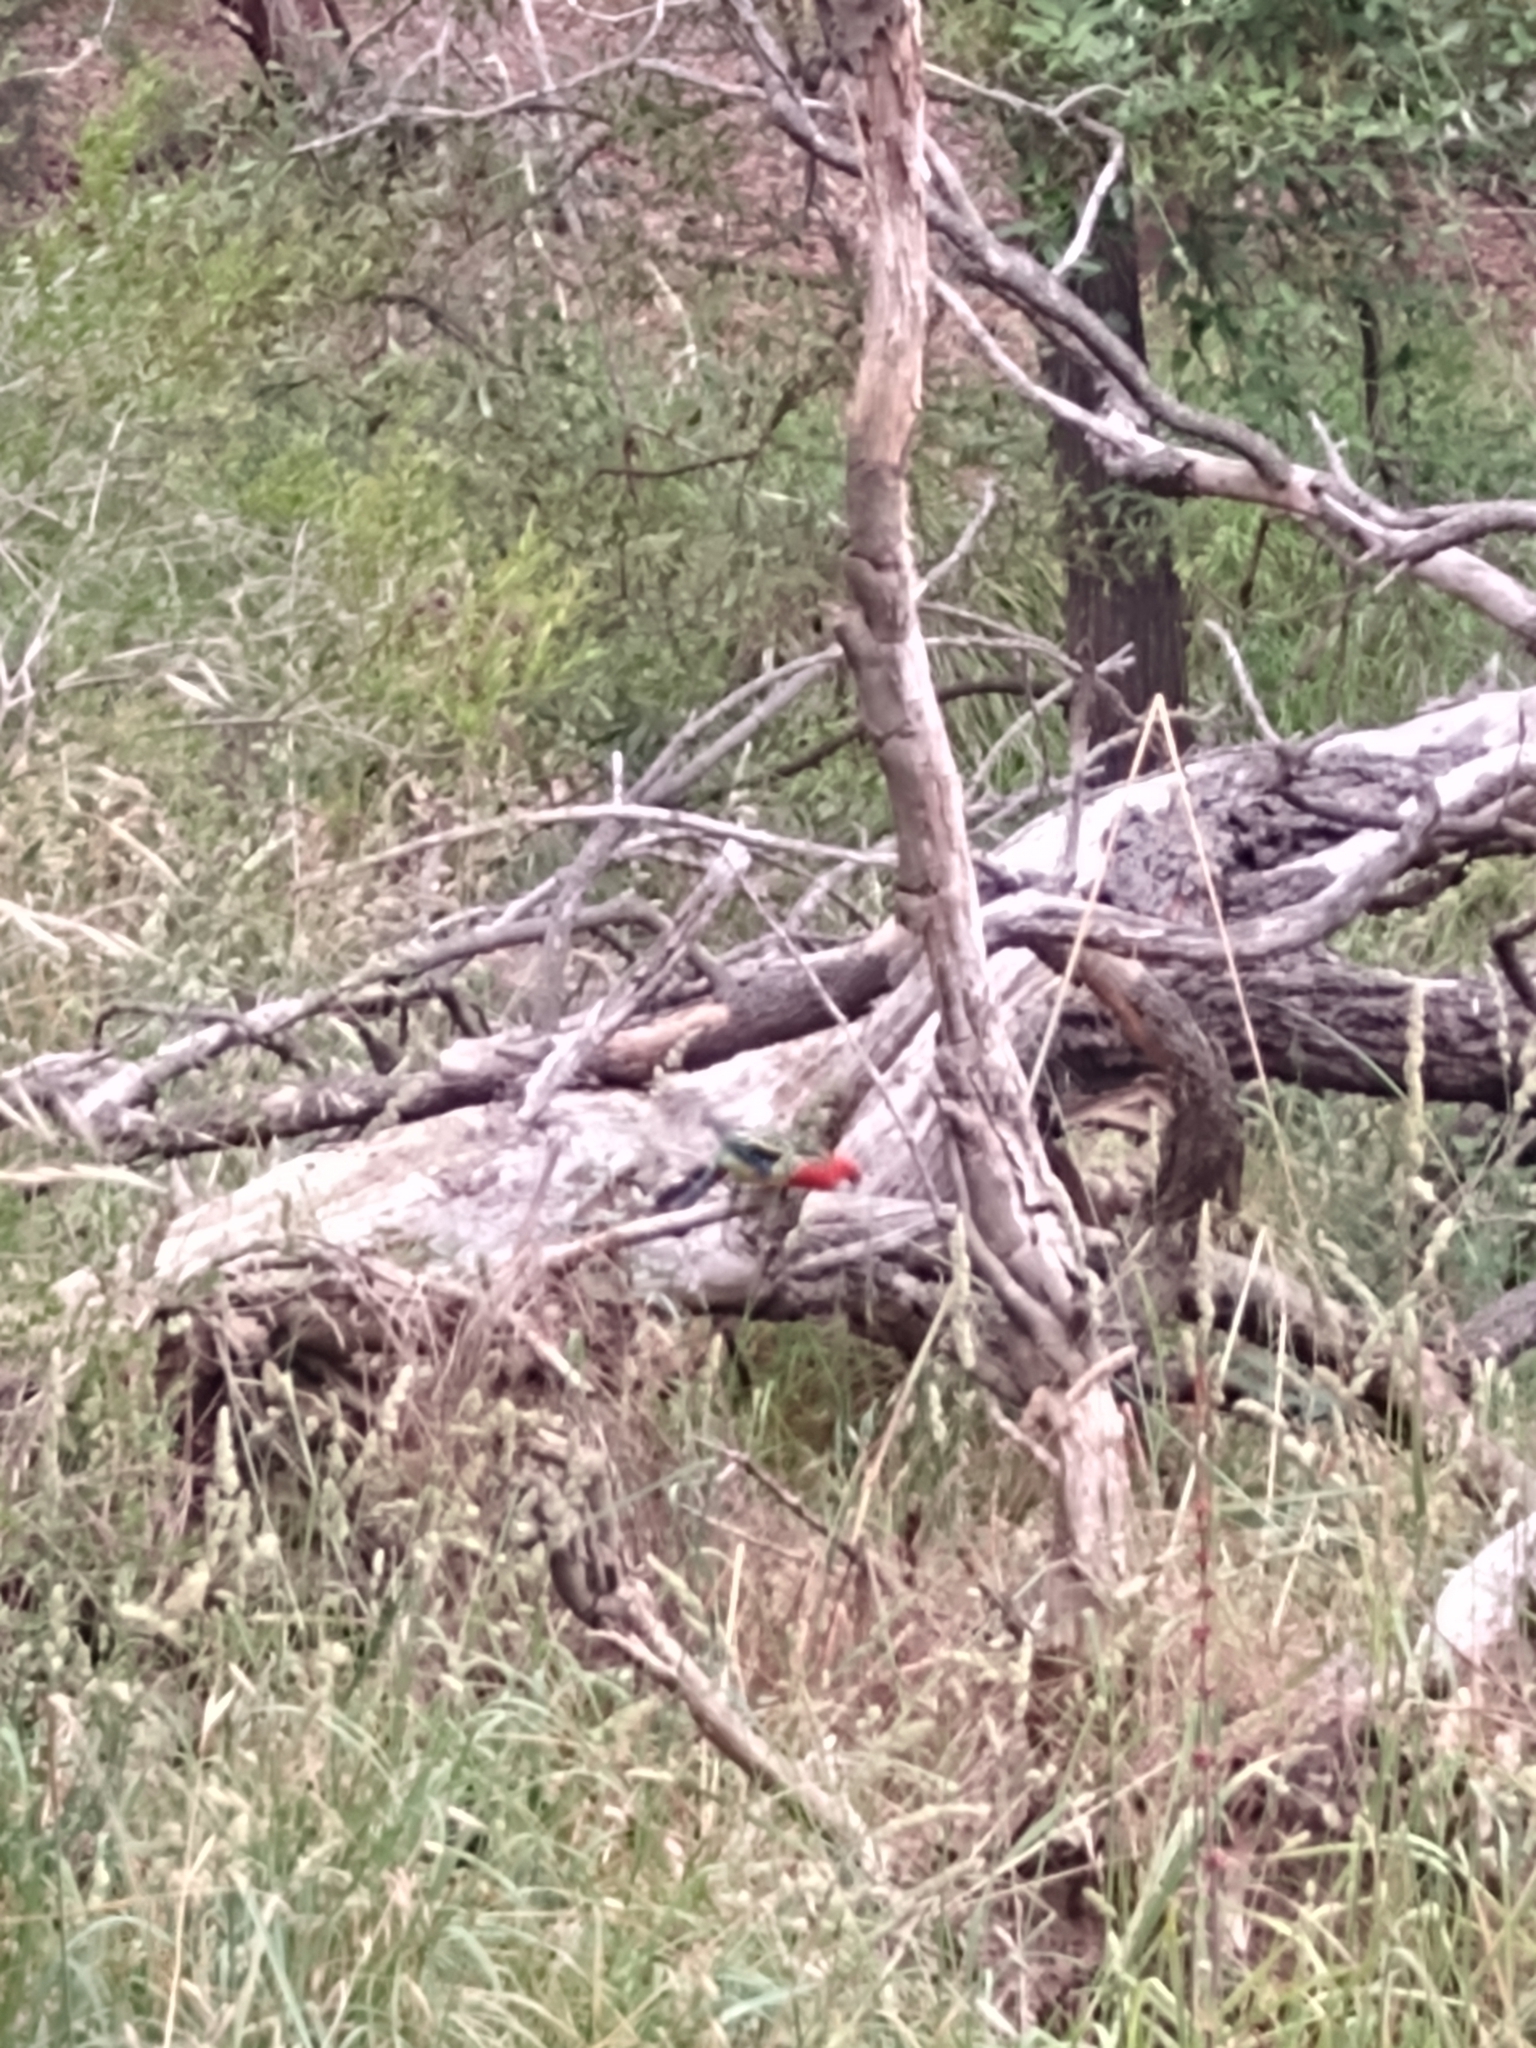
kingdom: Animalia
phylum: Chordata
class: Aves
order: Psittaciformes
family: Psittacidae
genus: Platycercus
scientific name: Platycercus eximius
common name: Eastern rosella
